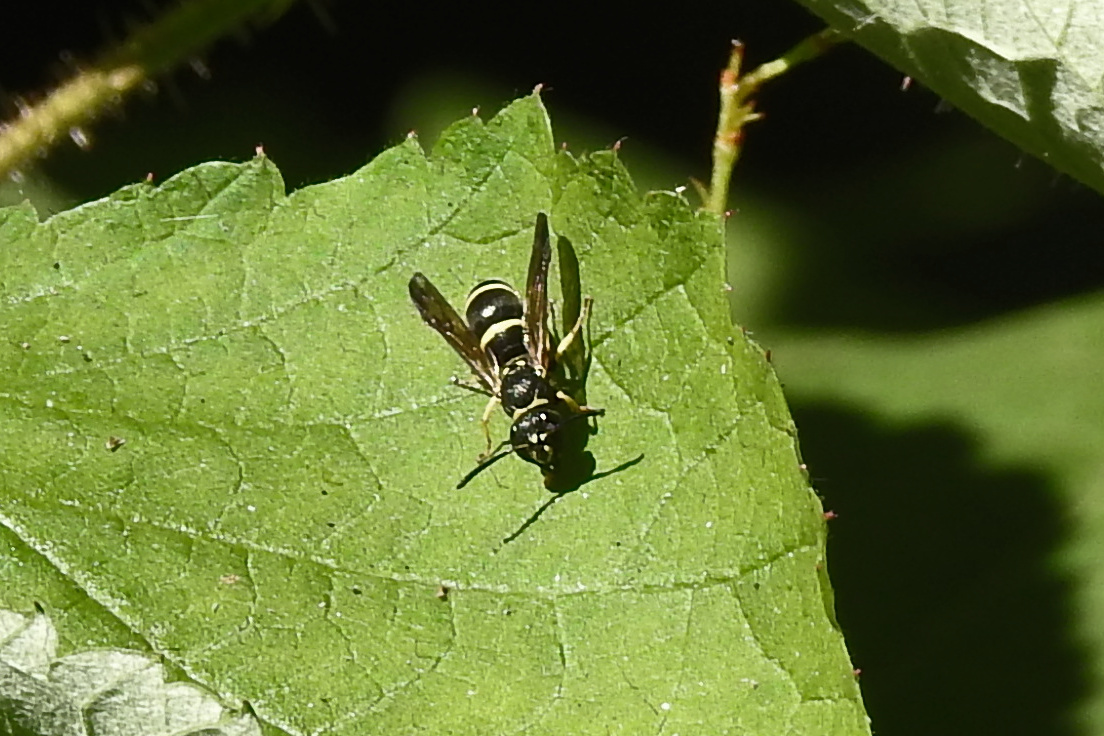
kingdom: Animalia
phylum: Arthropoda
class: Insecta
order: Hymenoptera
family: Vespidae
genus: Ancistrocerus
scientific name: Ancistrocerus adiabatus
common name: Bramble mason wasp
